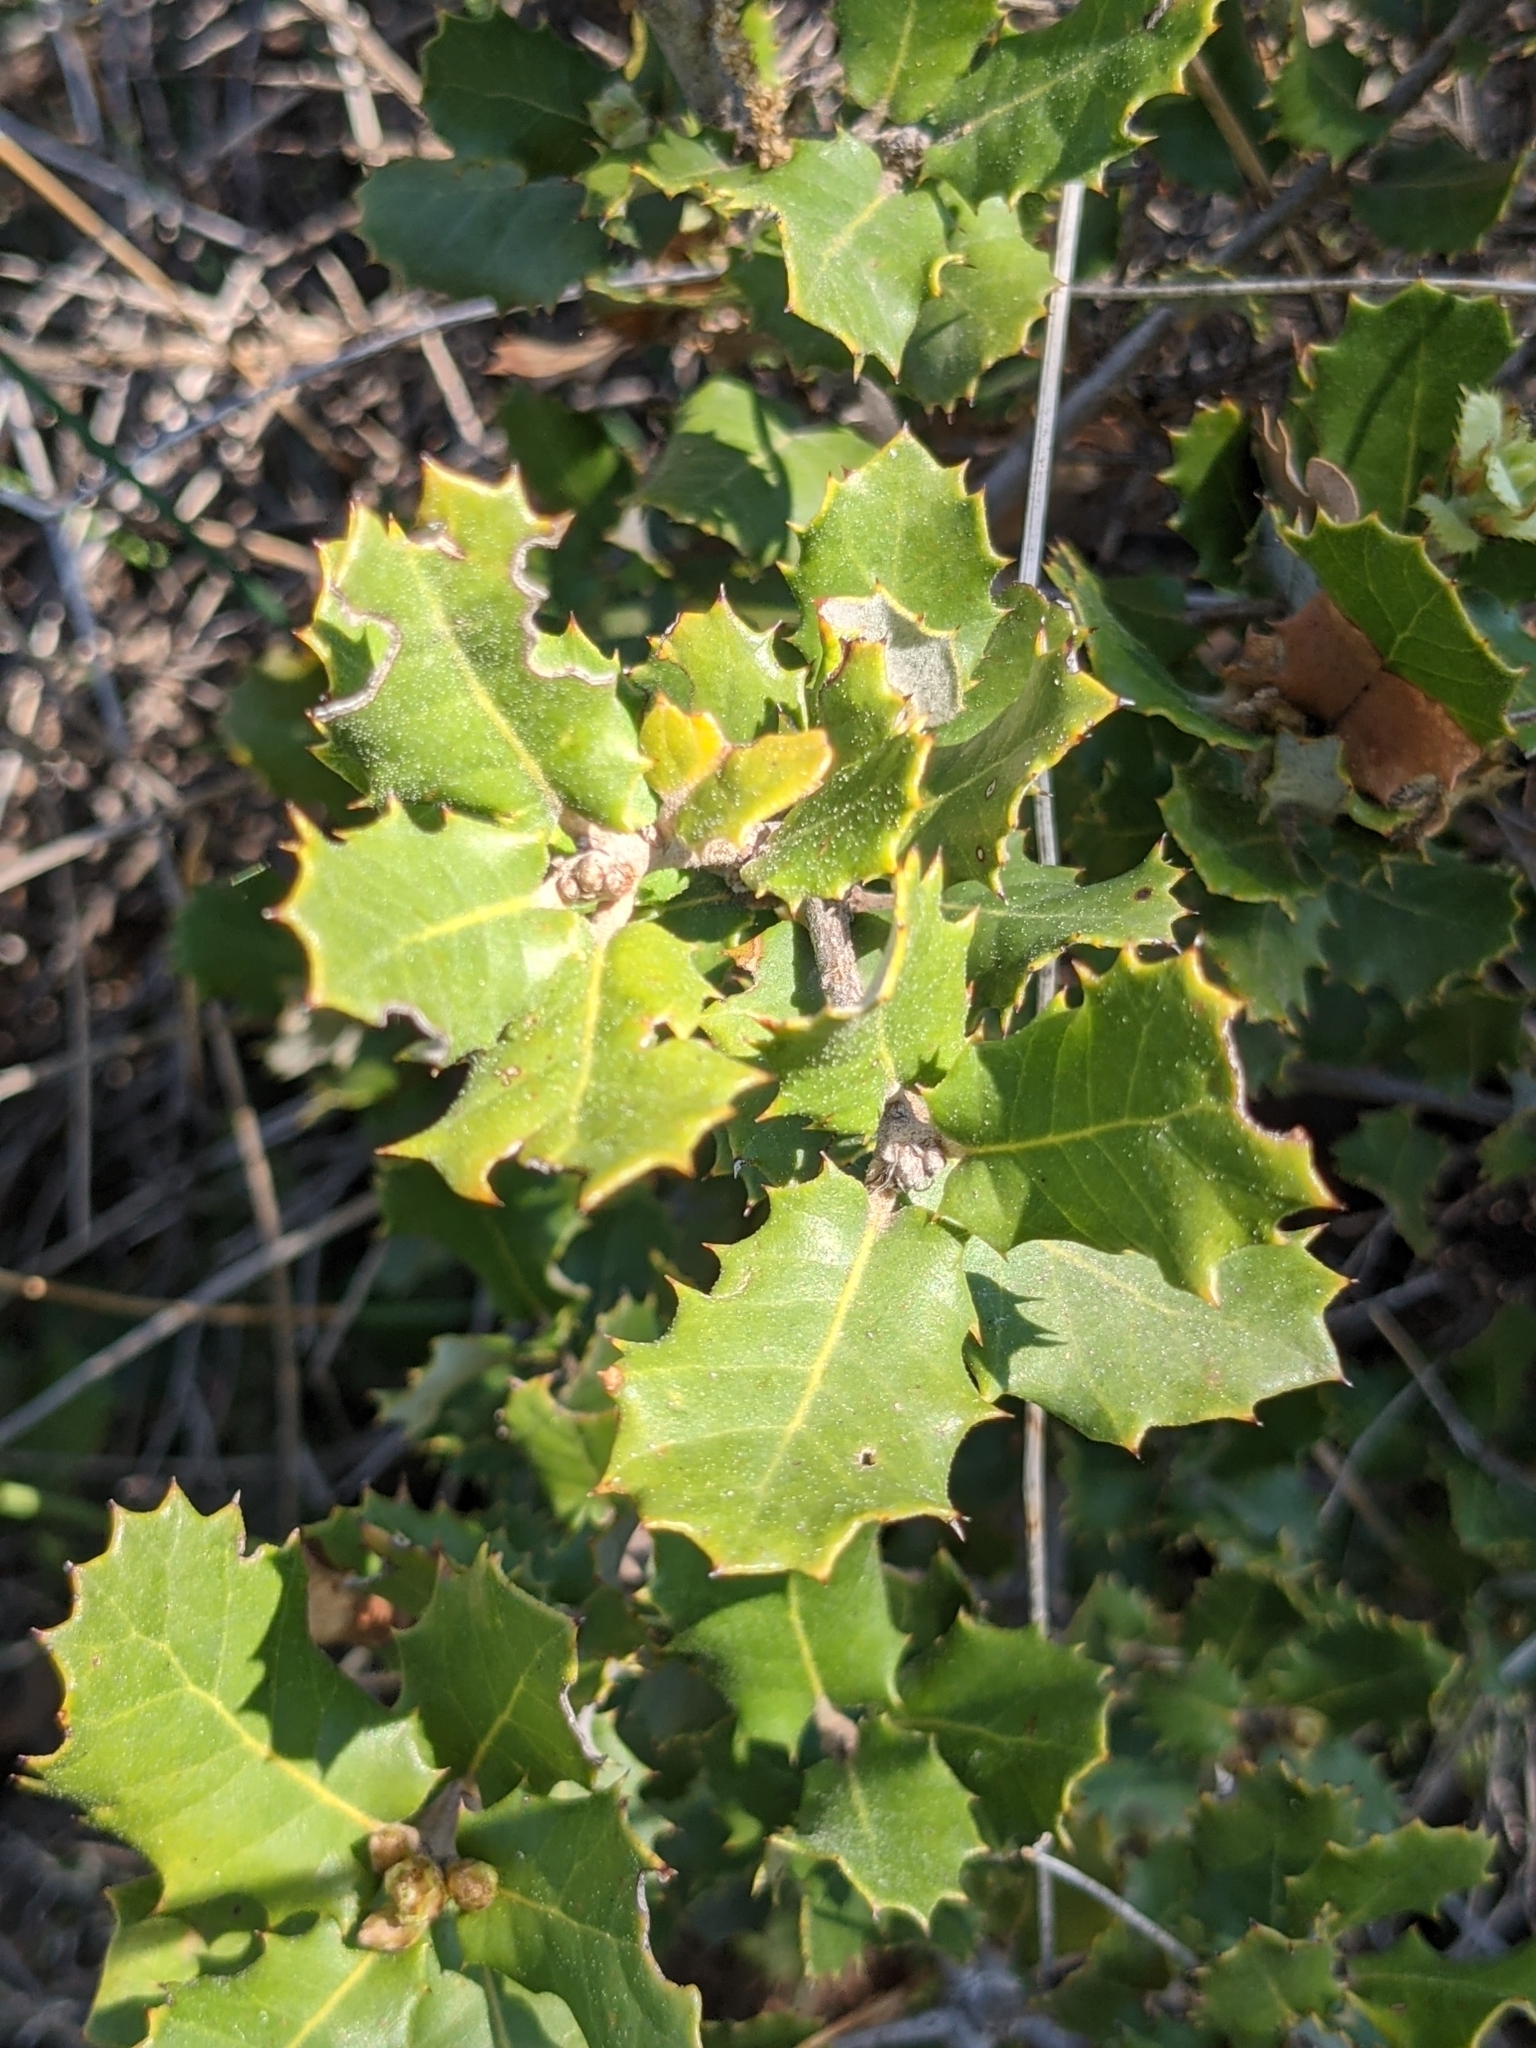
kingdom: Plantae
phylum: Tracheophyta
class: Magnoliopsida
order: Fagales
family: Fagaceae
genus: Quercus
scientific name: Quercus
